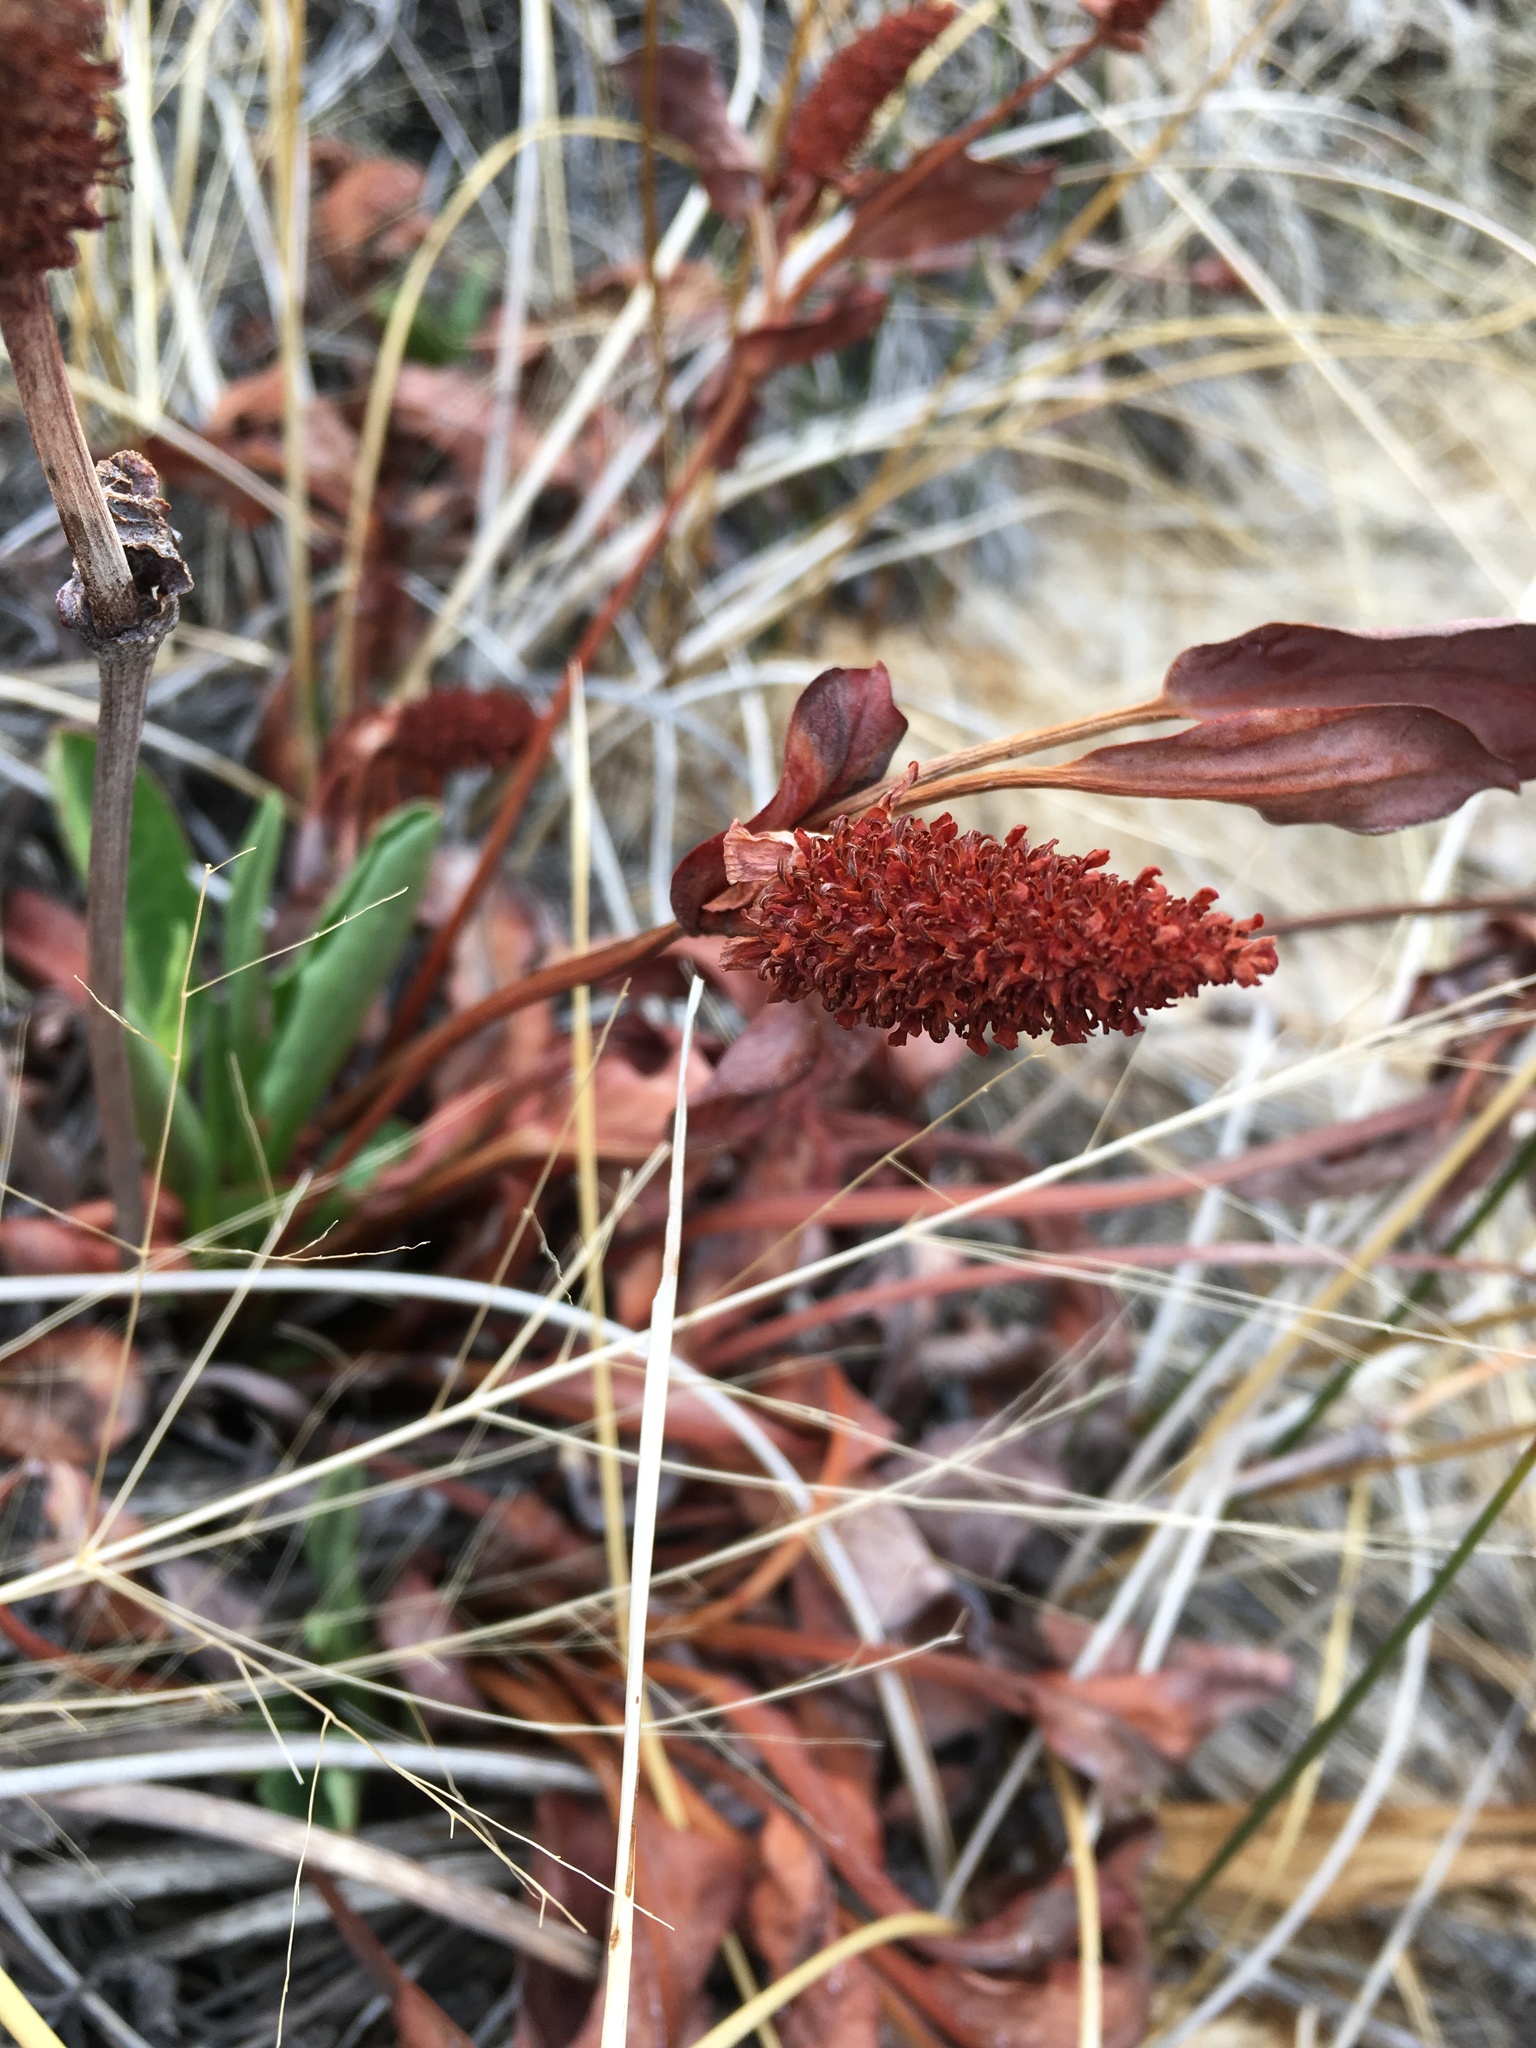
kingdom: Plantae
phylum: Tracheophyta
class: Magnoliopsida
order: Piperales
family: Saururaceae
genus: Anemopsis
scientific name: Anemopsis californica
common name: Apache-beads
